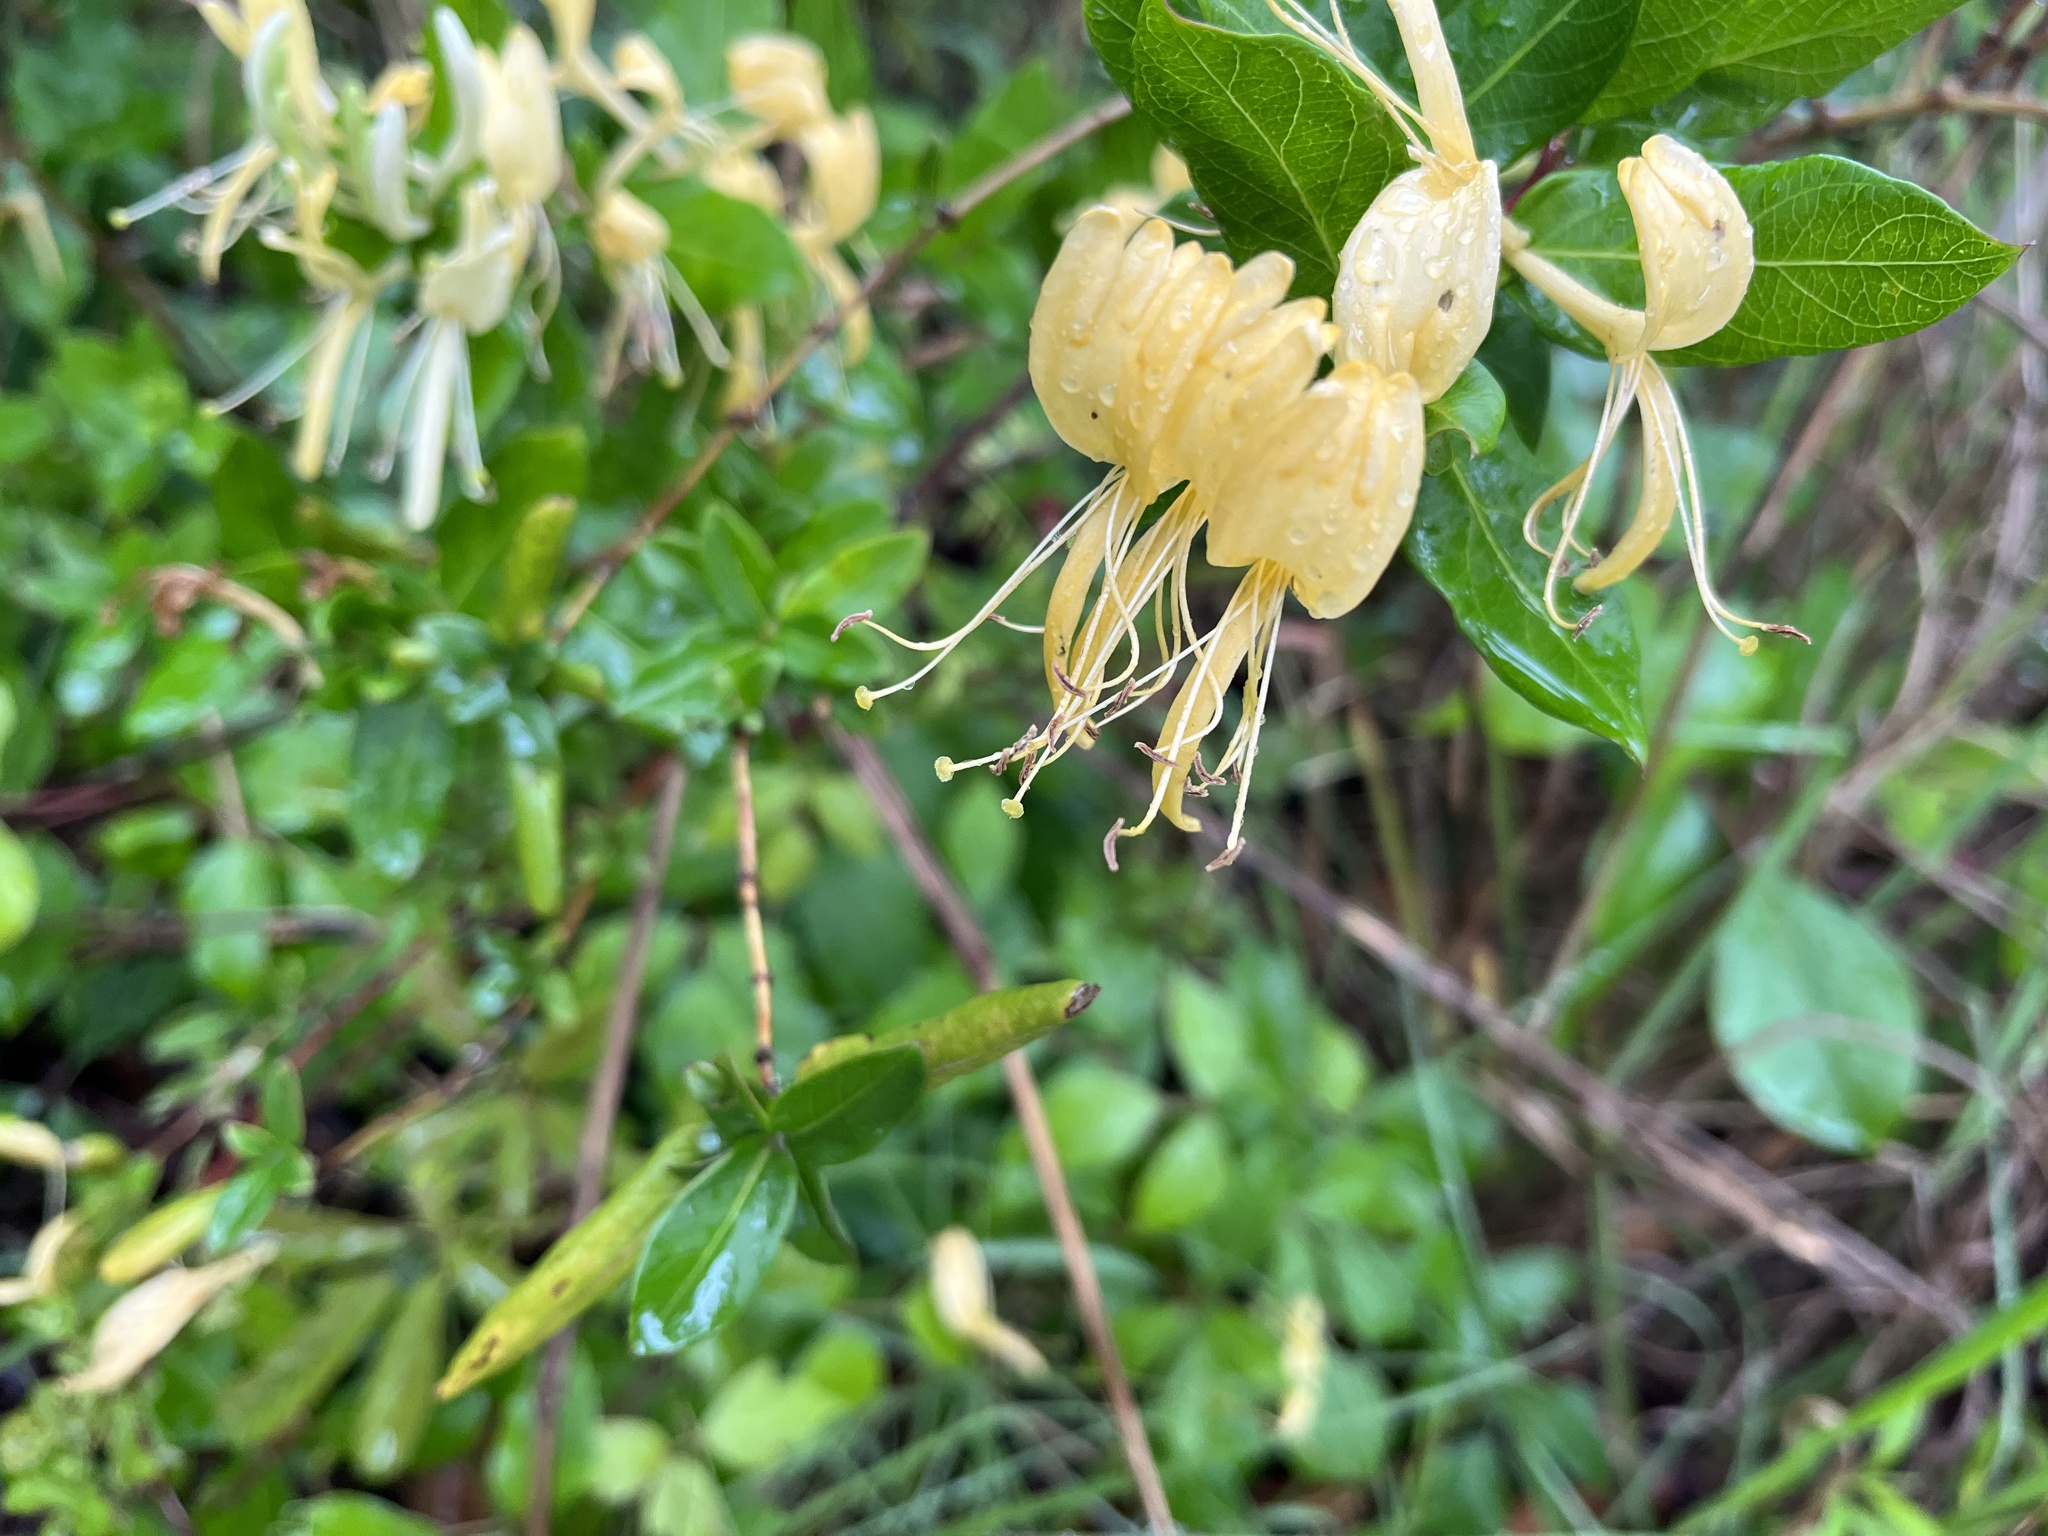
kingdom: Plantae
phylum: Tracheophyta
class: Magnoliopsida
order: Dipsacales
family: Caprifoliaceae
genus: Lonicera
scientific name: Lonicera japonica
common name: Japanese honeysuckle
